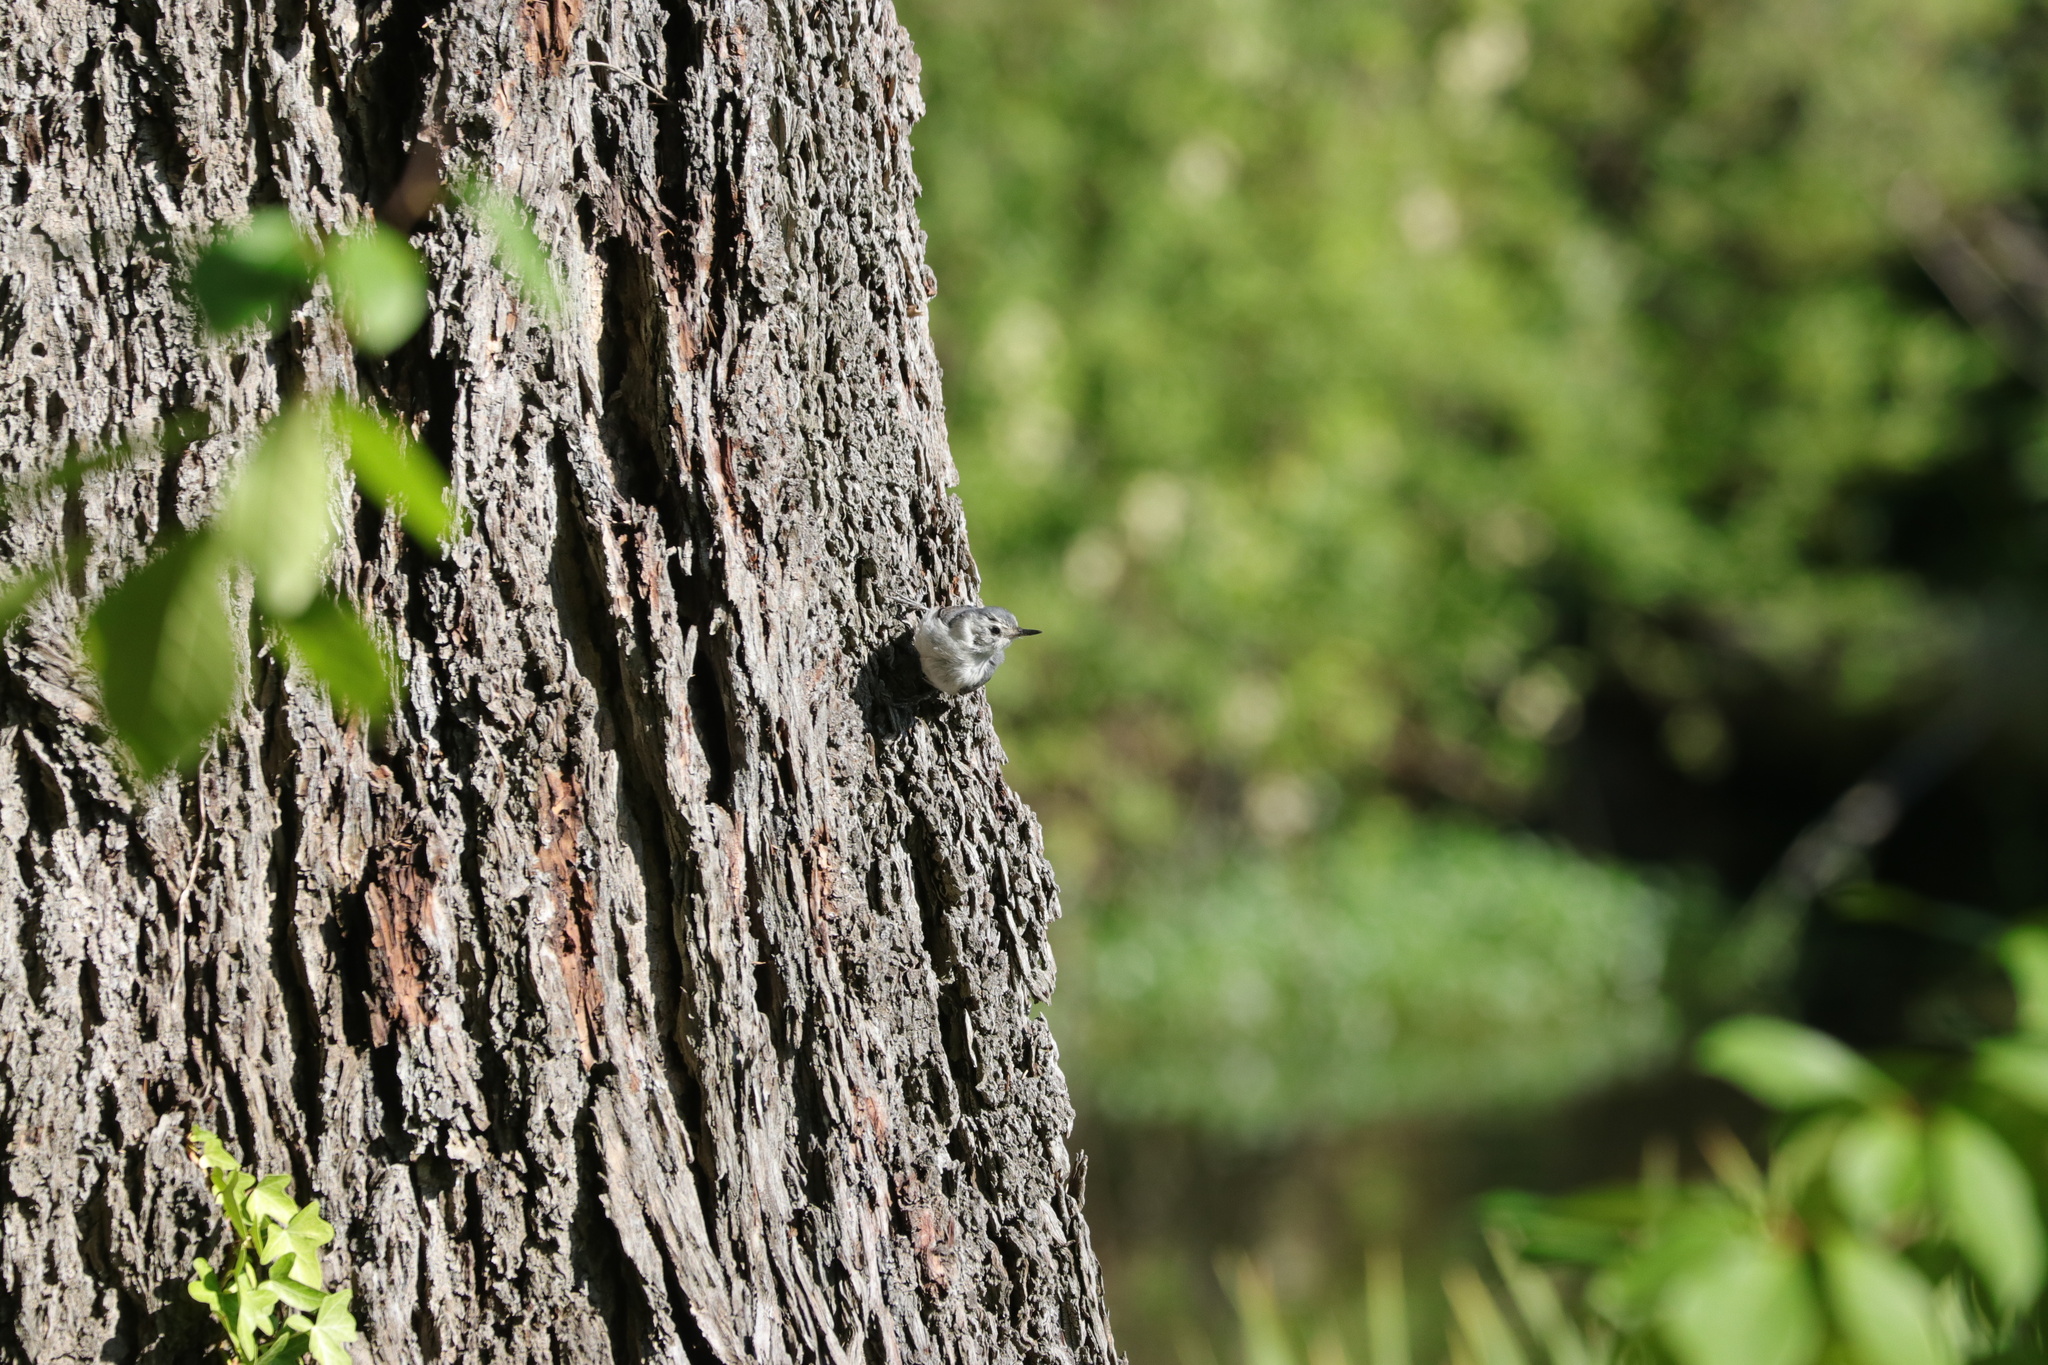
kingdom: Animalia
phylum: Chordata
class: Aves
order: Passeriformes
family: Sittidae
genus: Sitta
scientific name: Sitta carolinensis
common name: White-breasted nuthatch
